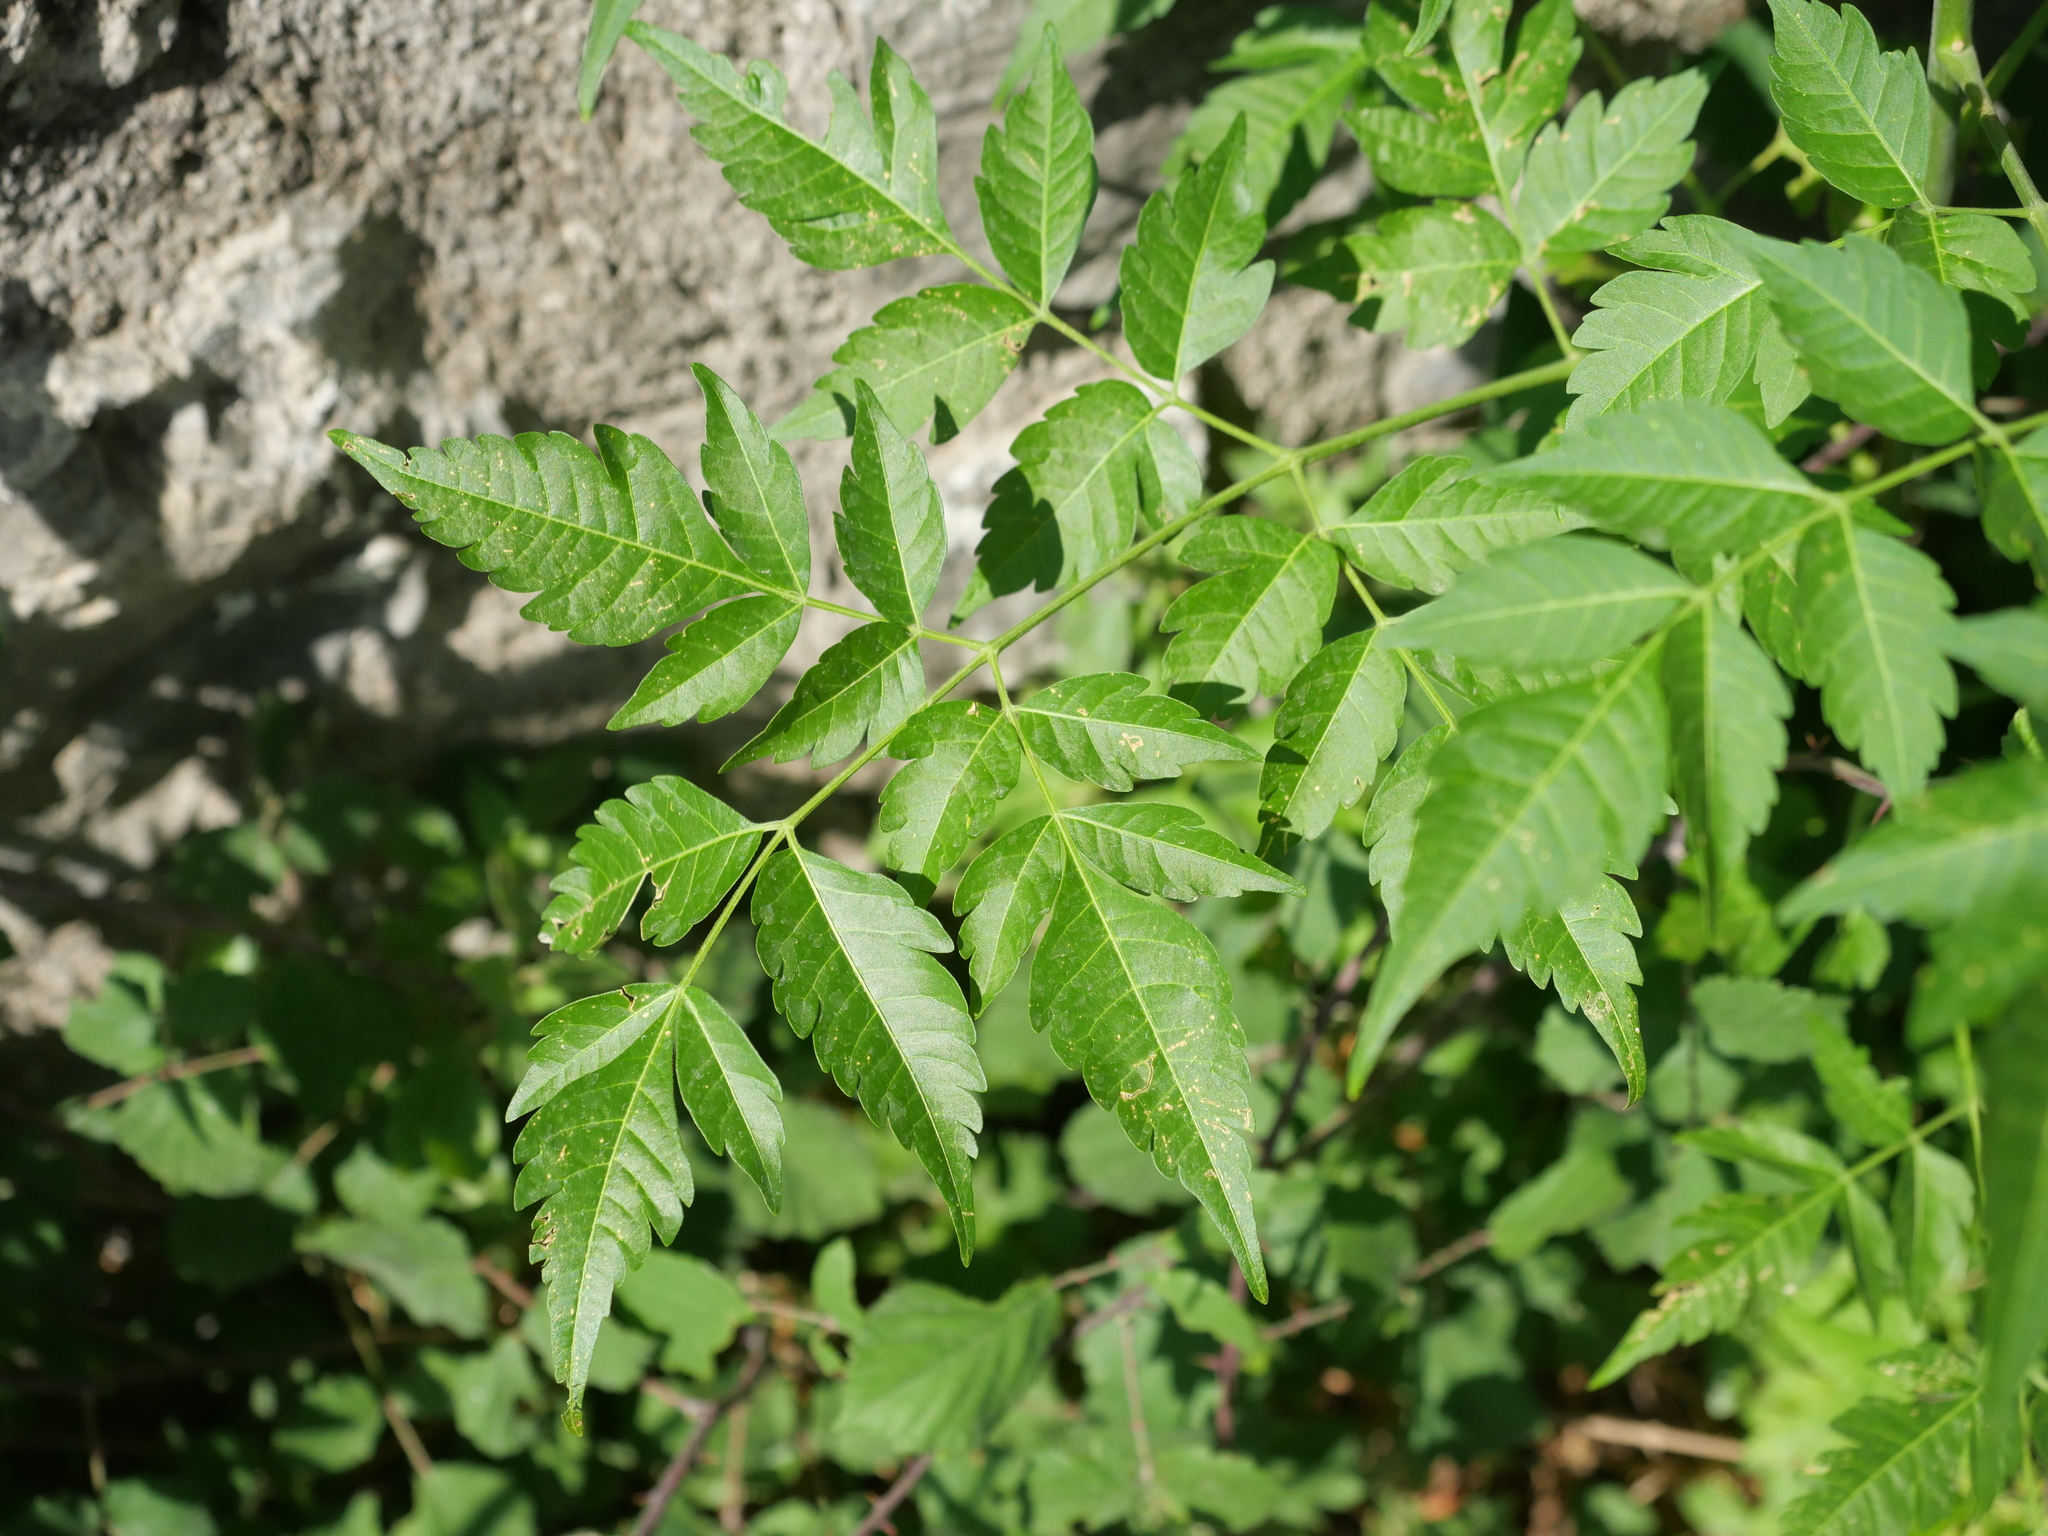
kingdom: Plantae
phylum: Tracheophyta
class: Magnoliopsida
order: Sapindales
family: Meliaceae
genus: Melia
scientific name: Melia azedarach
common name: Chinaberrytree
